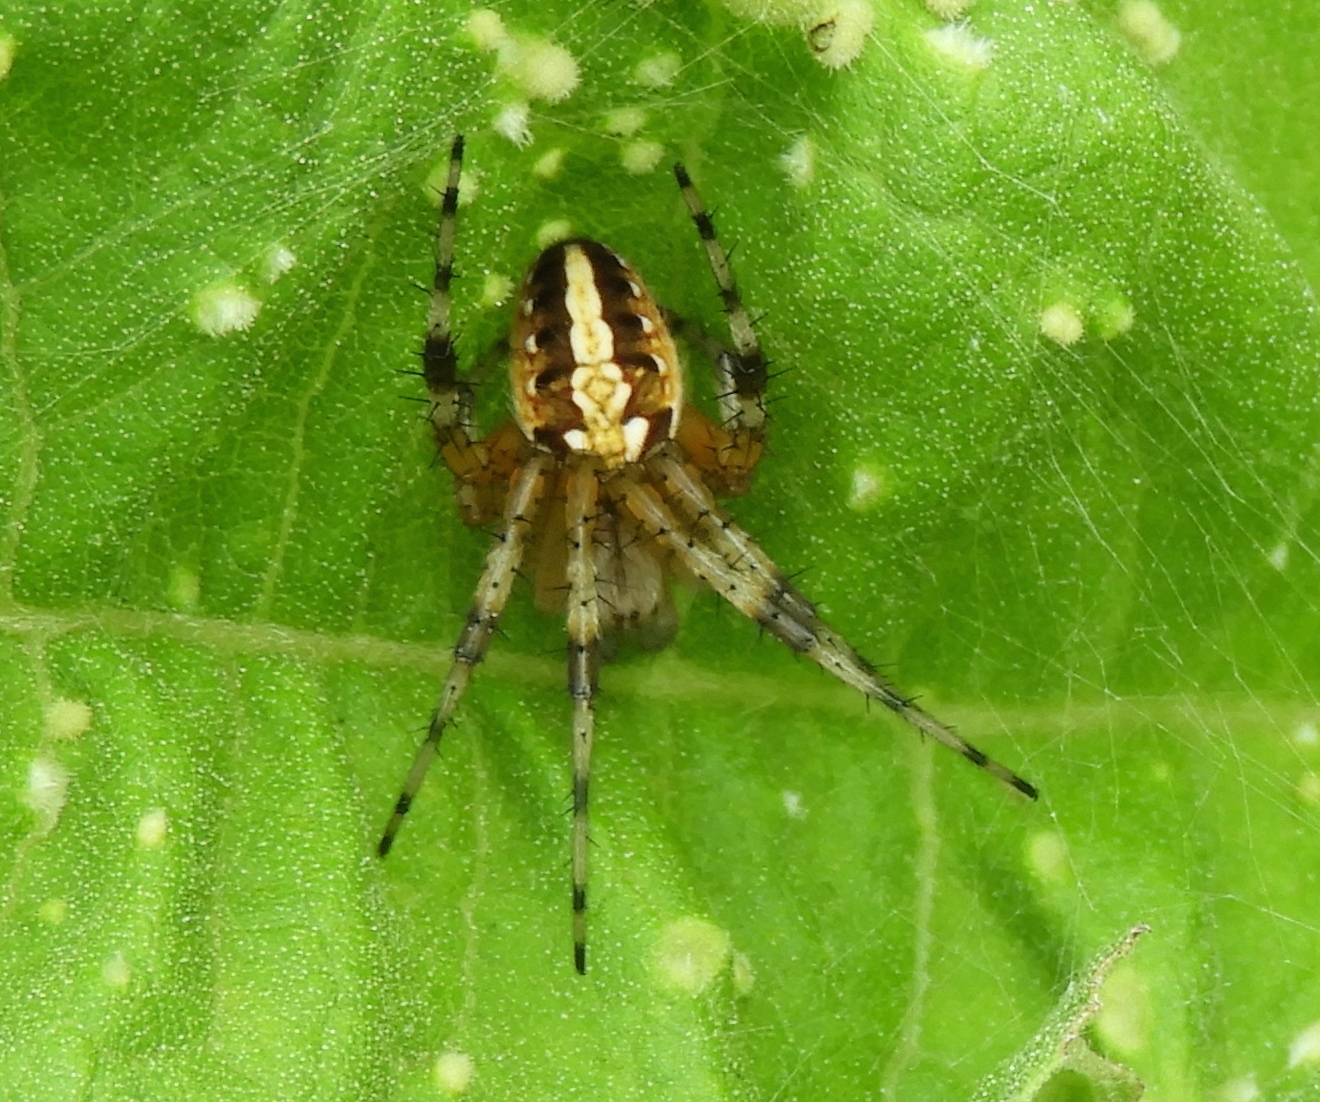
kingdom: Animalia
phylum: Arthropoda
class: Arachnida
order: Araneae
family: Araneidae
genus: Neoscona
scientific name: Neoscona oaxacensis
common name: Orb weavers
